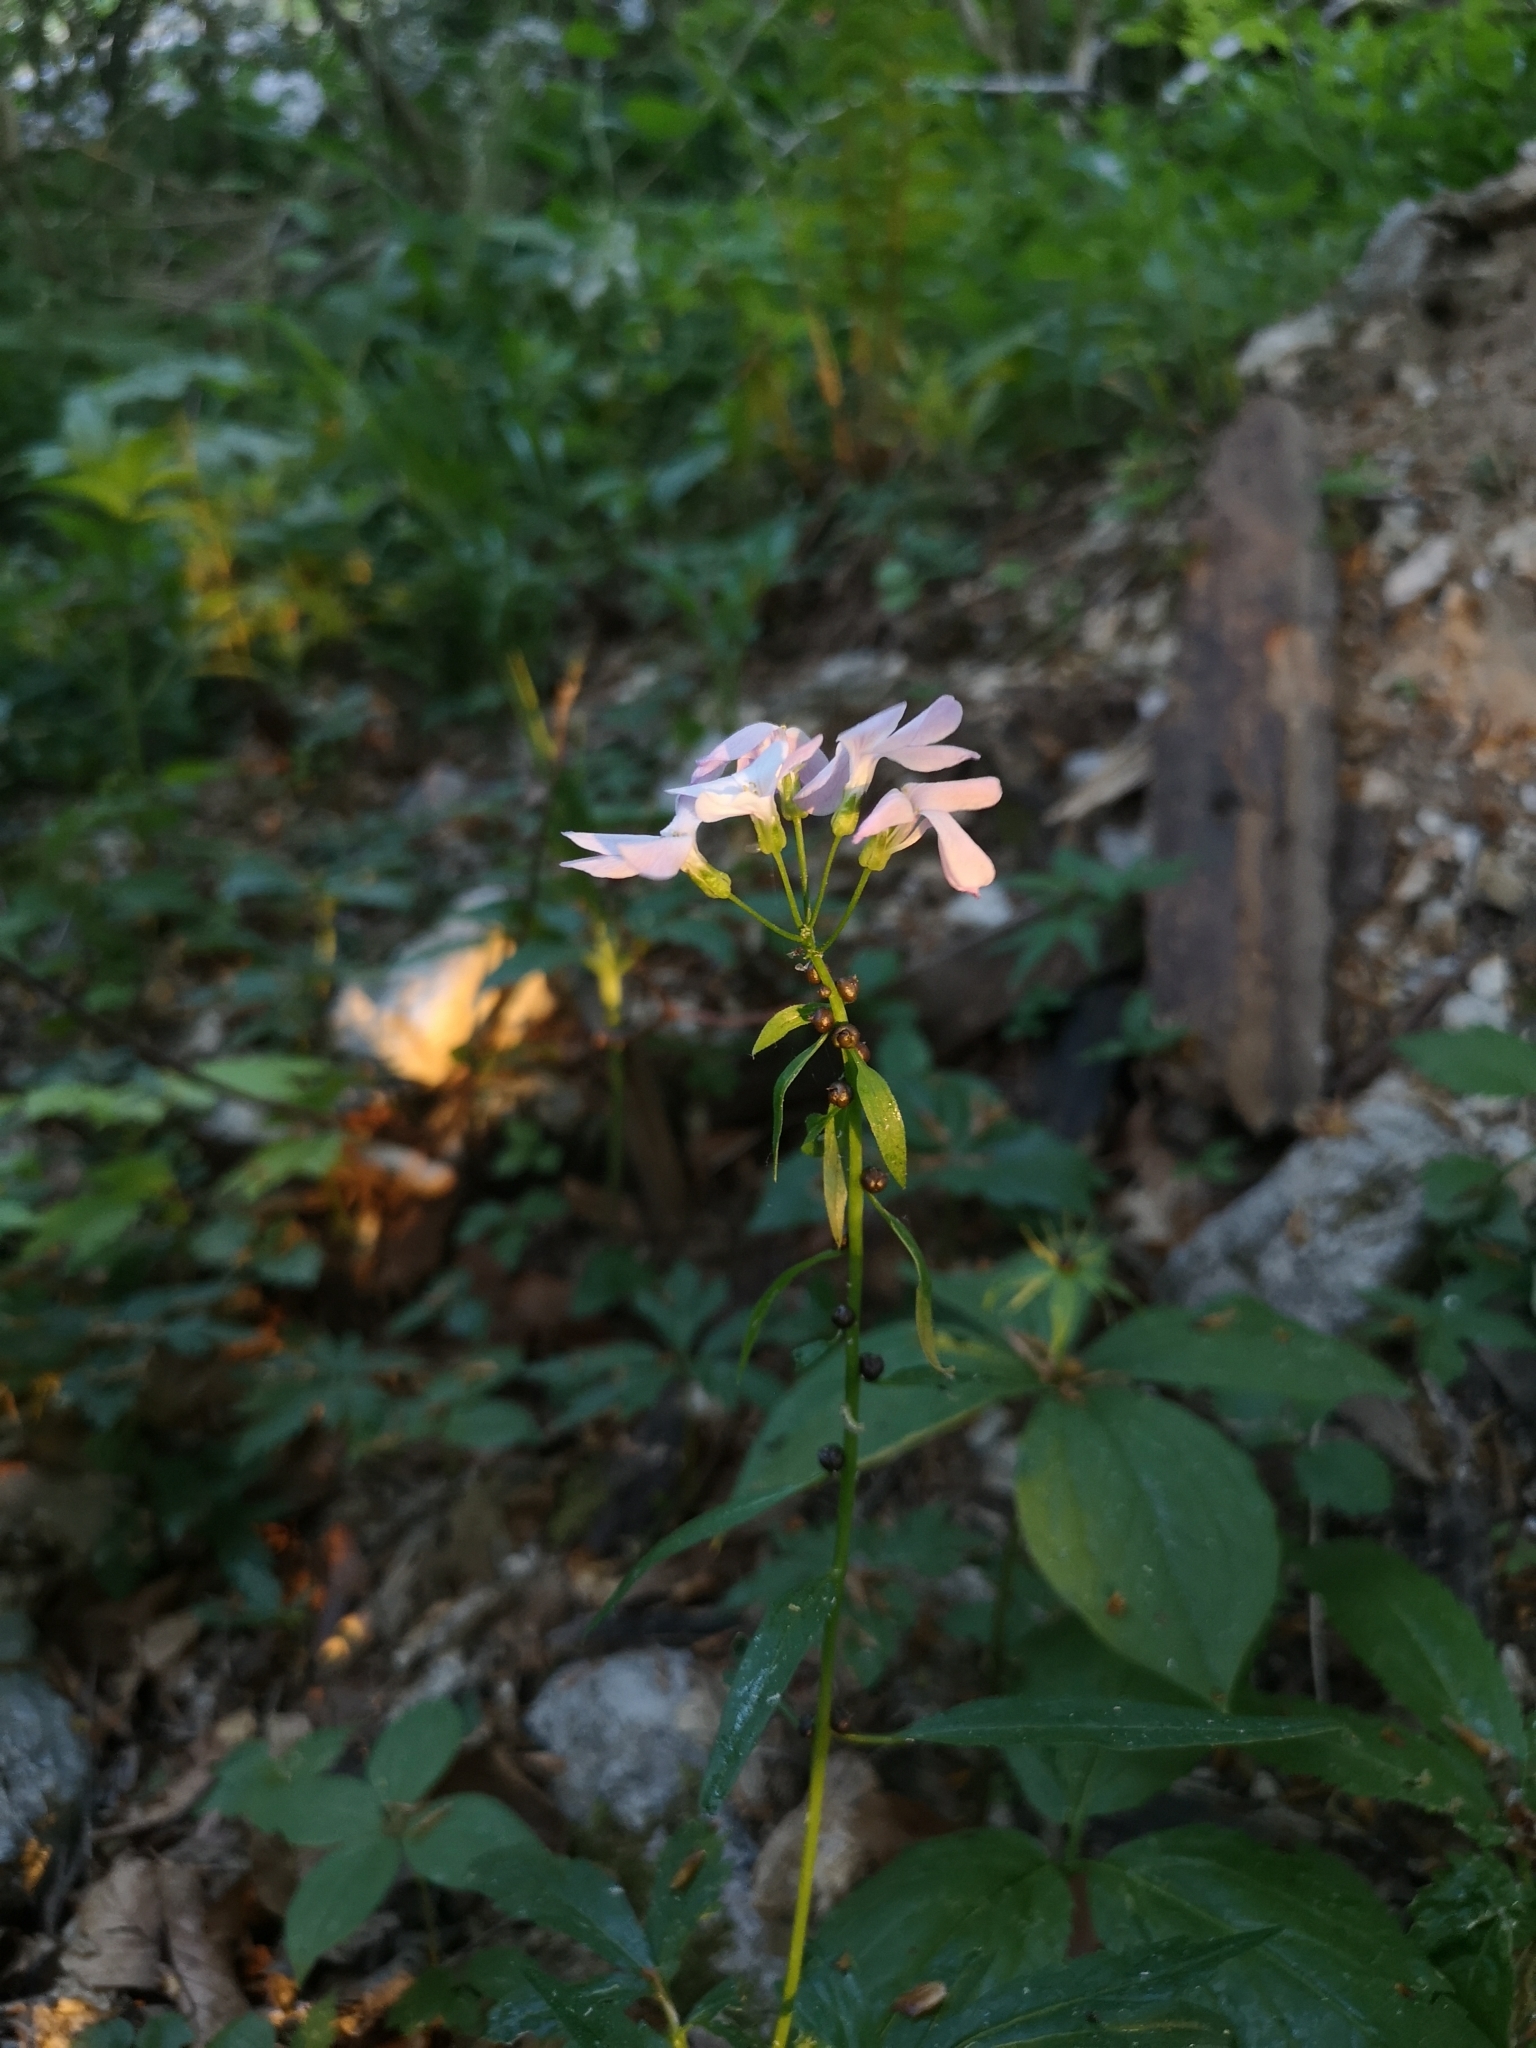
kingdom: Plantae
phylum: Tracheophyta
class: Magnoliopsida
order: Brassicales
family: Brassicaceae
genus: Cardamine
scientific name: Cardamine bulbifera
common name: Coralroot bittercress
